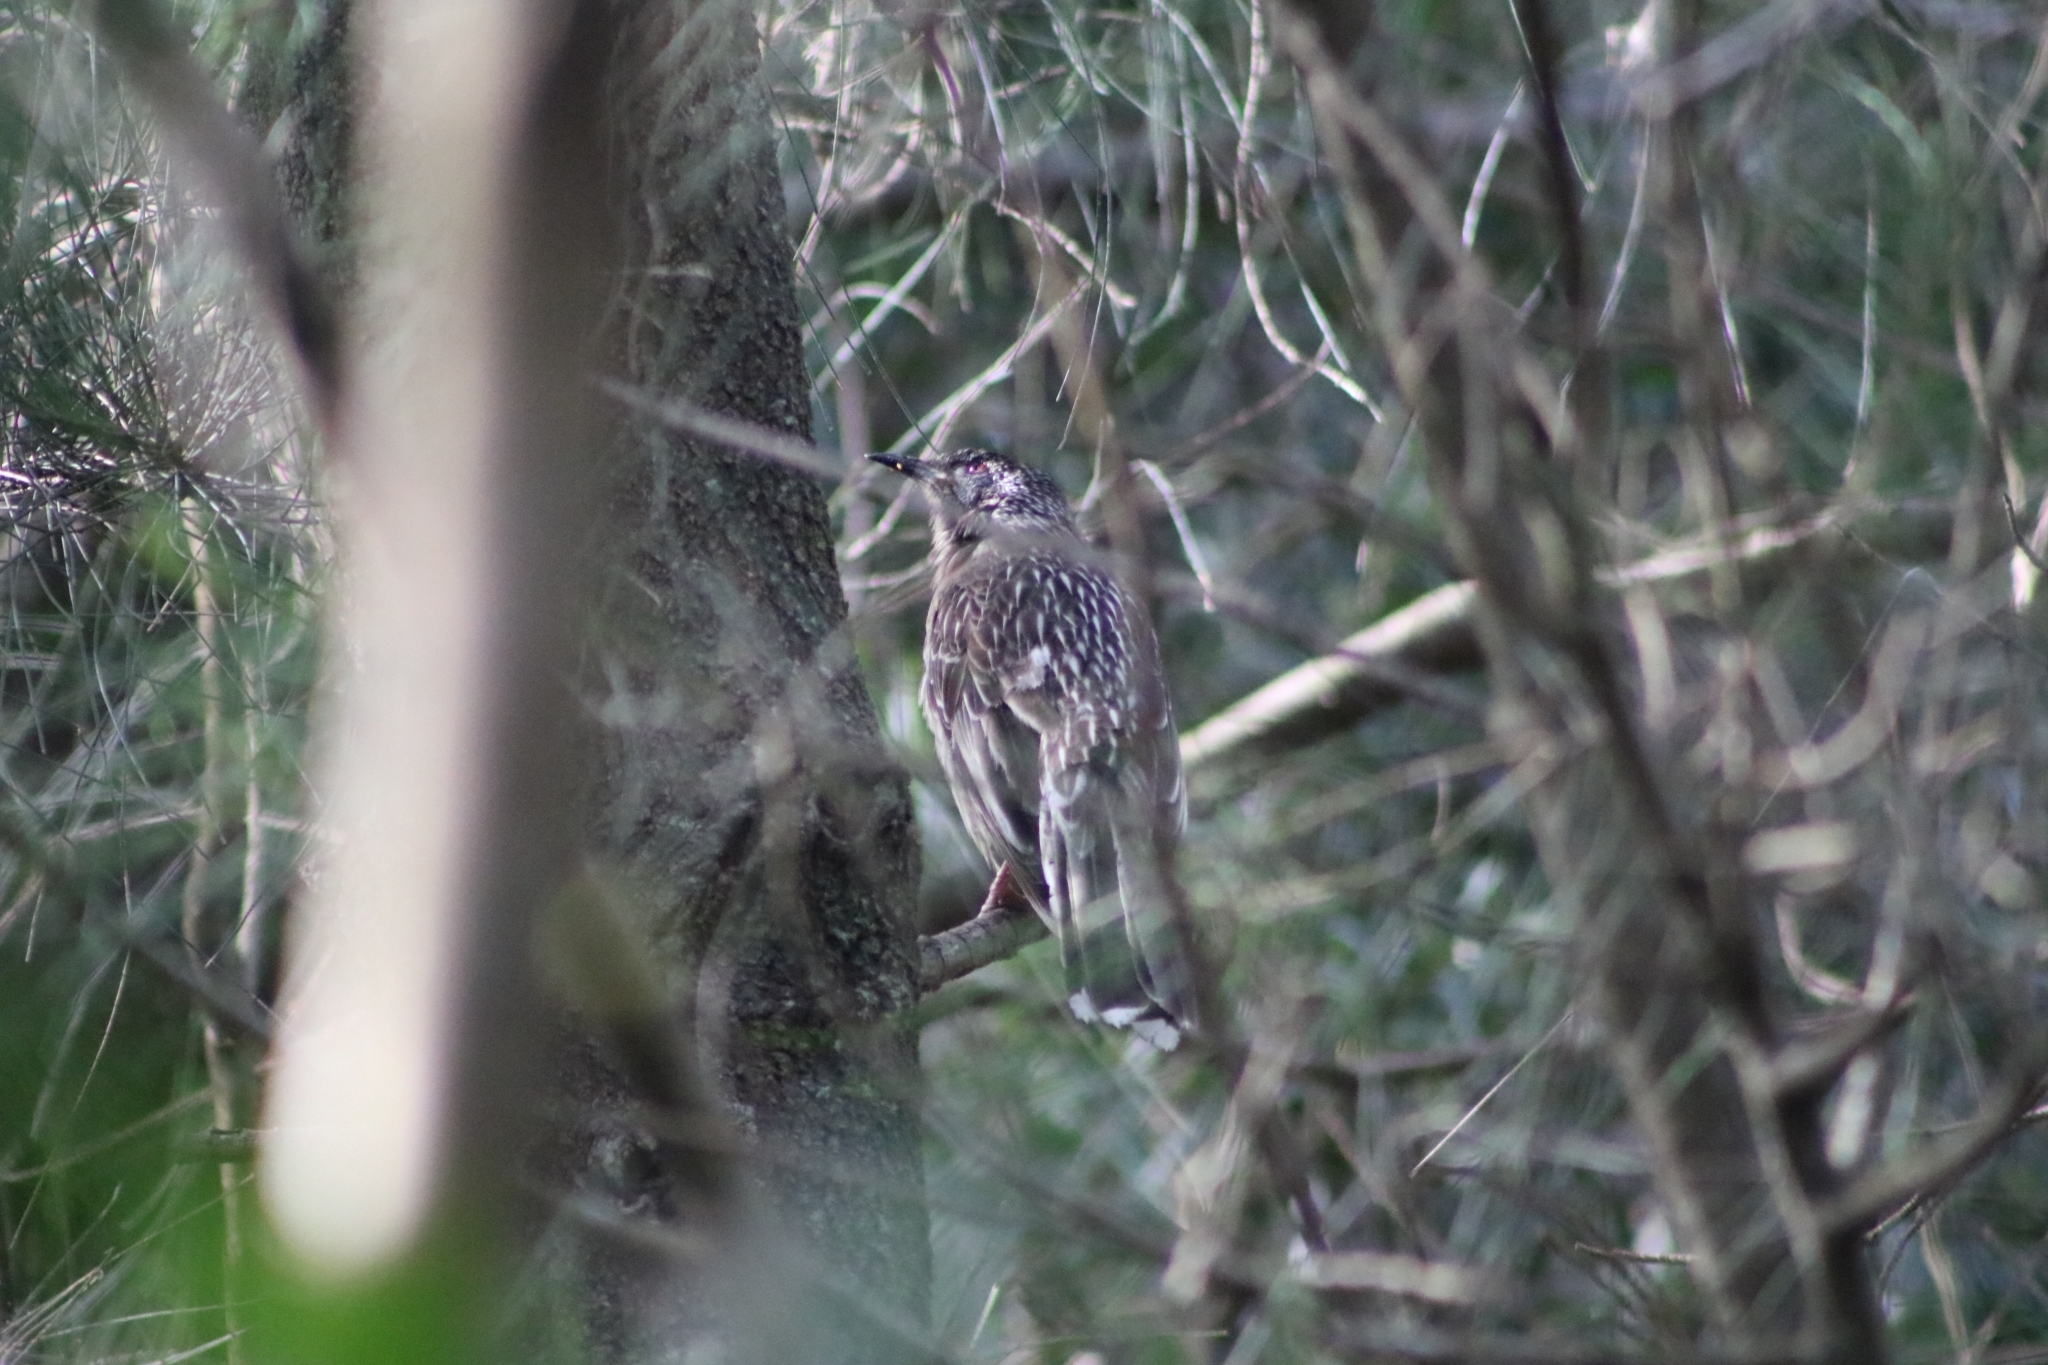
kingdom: Animalia
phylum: Chordata
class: Aves
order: Passeriformes
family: Meliphagidae
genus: Anthochaera
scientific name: Anthochaera carunculata
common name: Red wattlebird
